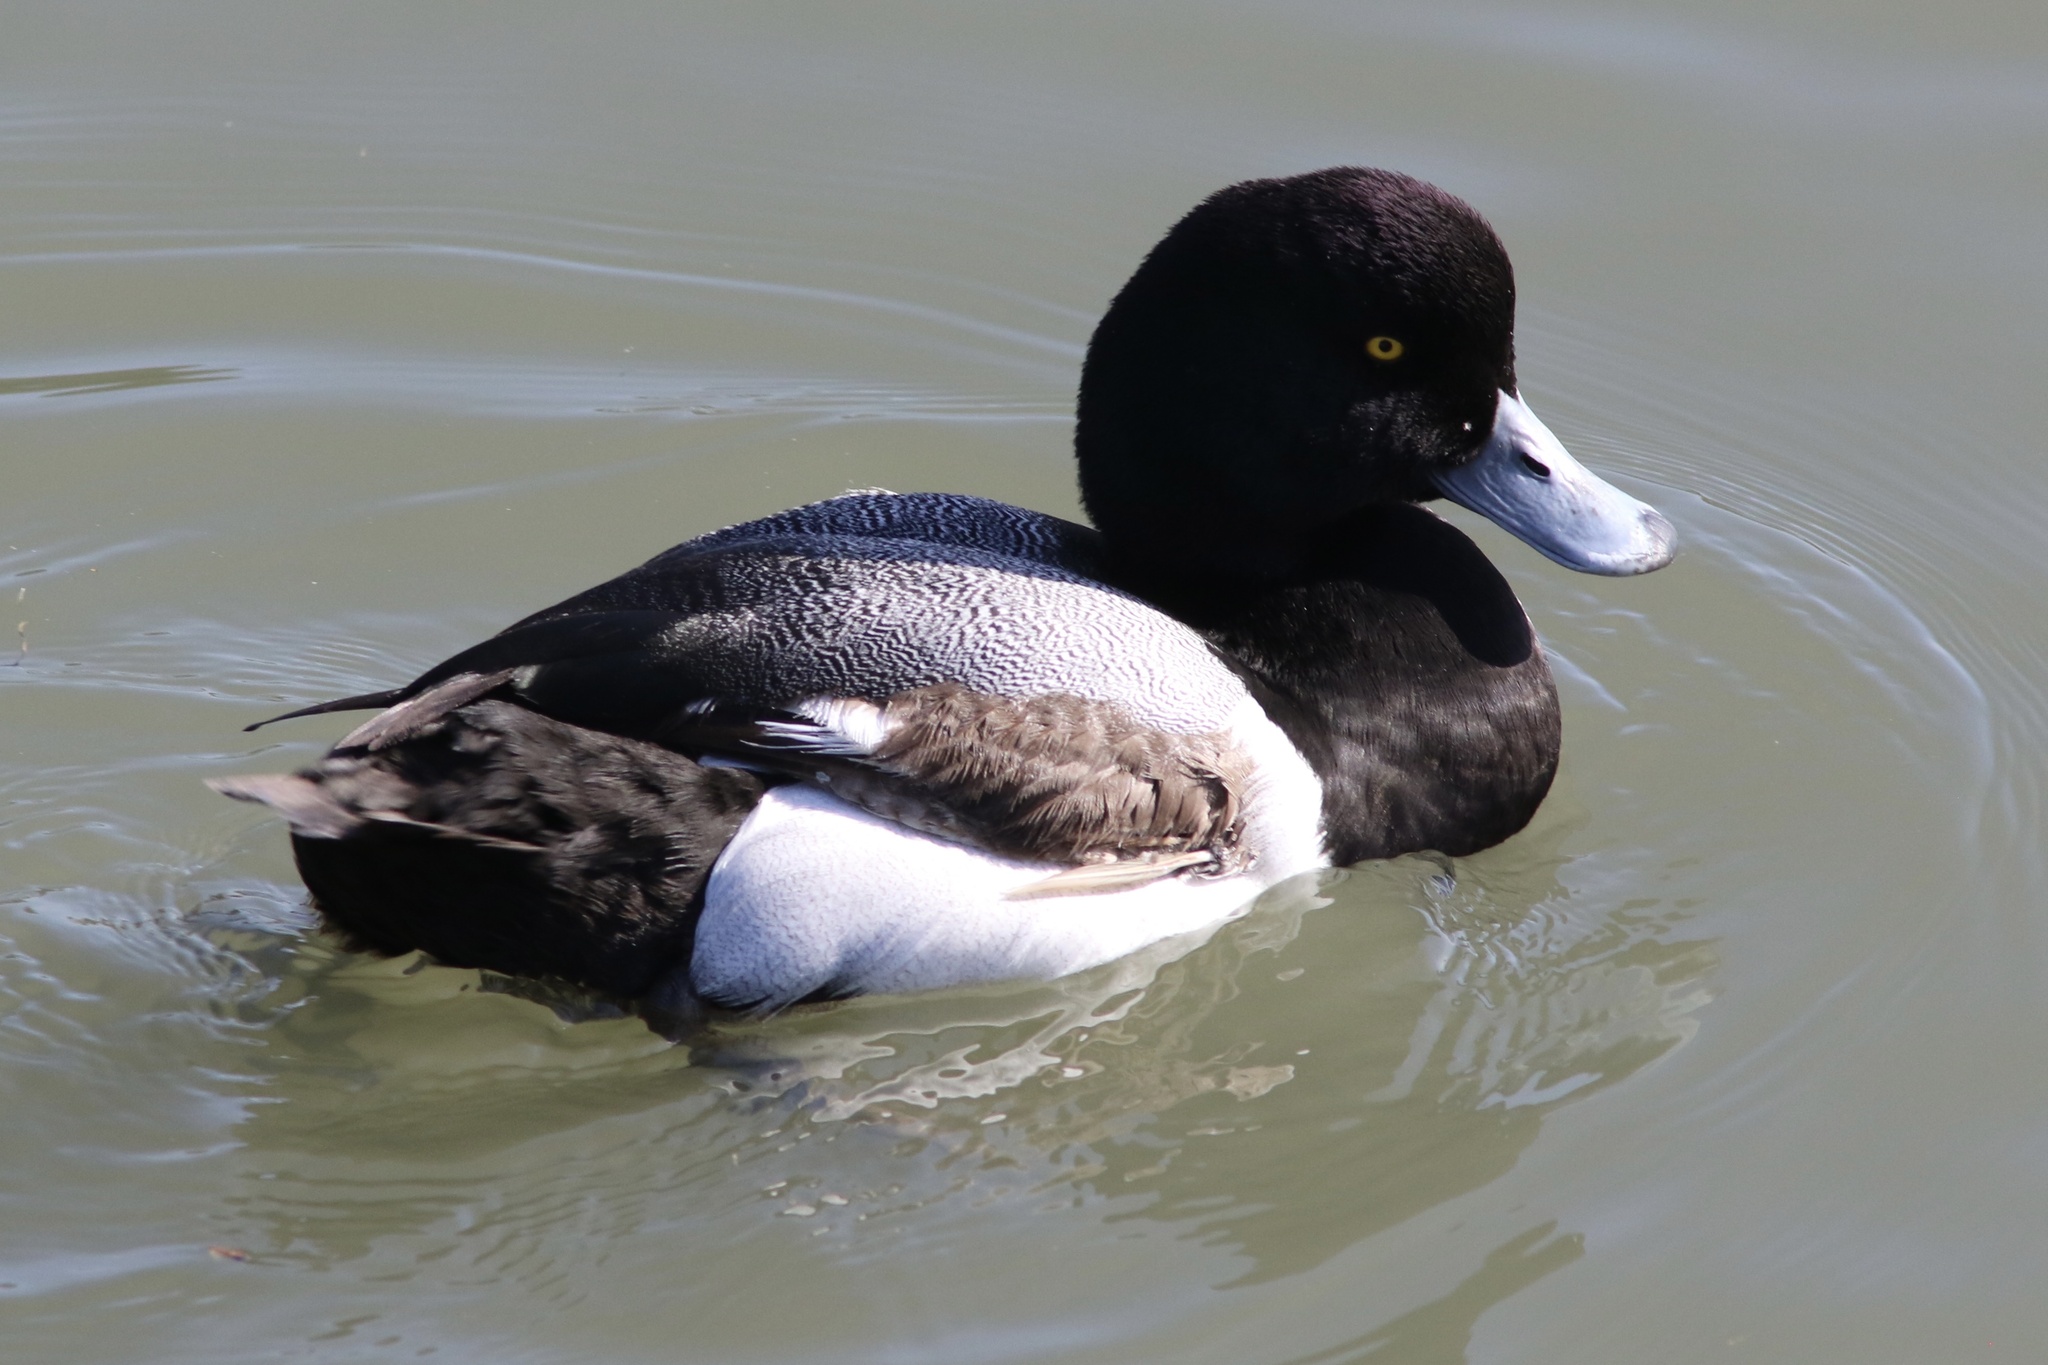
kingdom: Animalia
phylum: Chordata
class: Aves
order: Anseriformes
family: Anatidae
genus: Aythya
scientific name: Aythya marila
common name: Greater scaup
